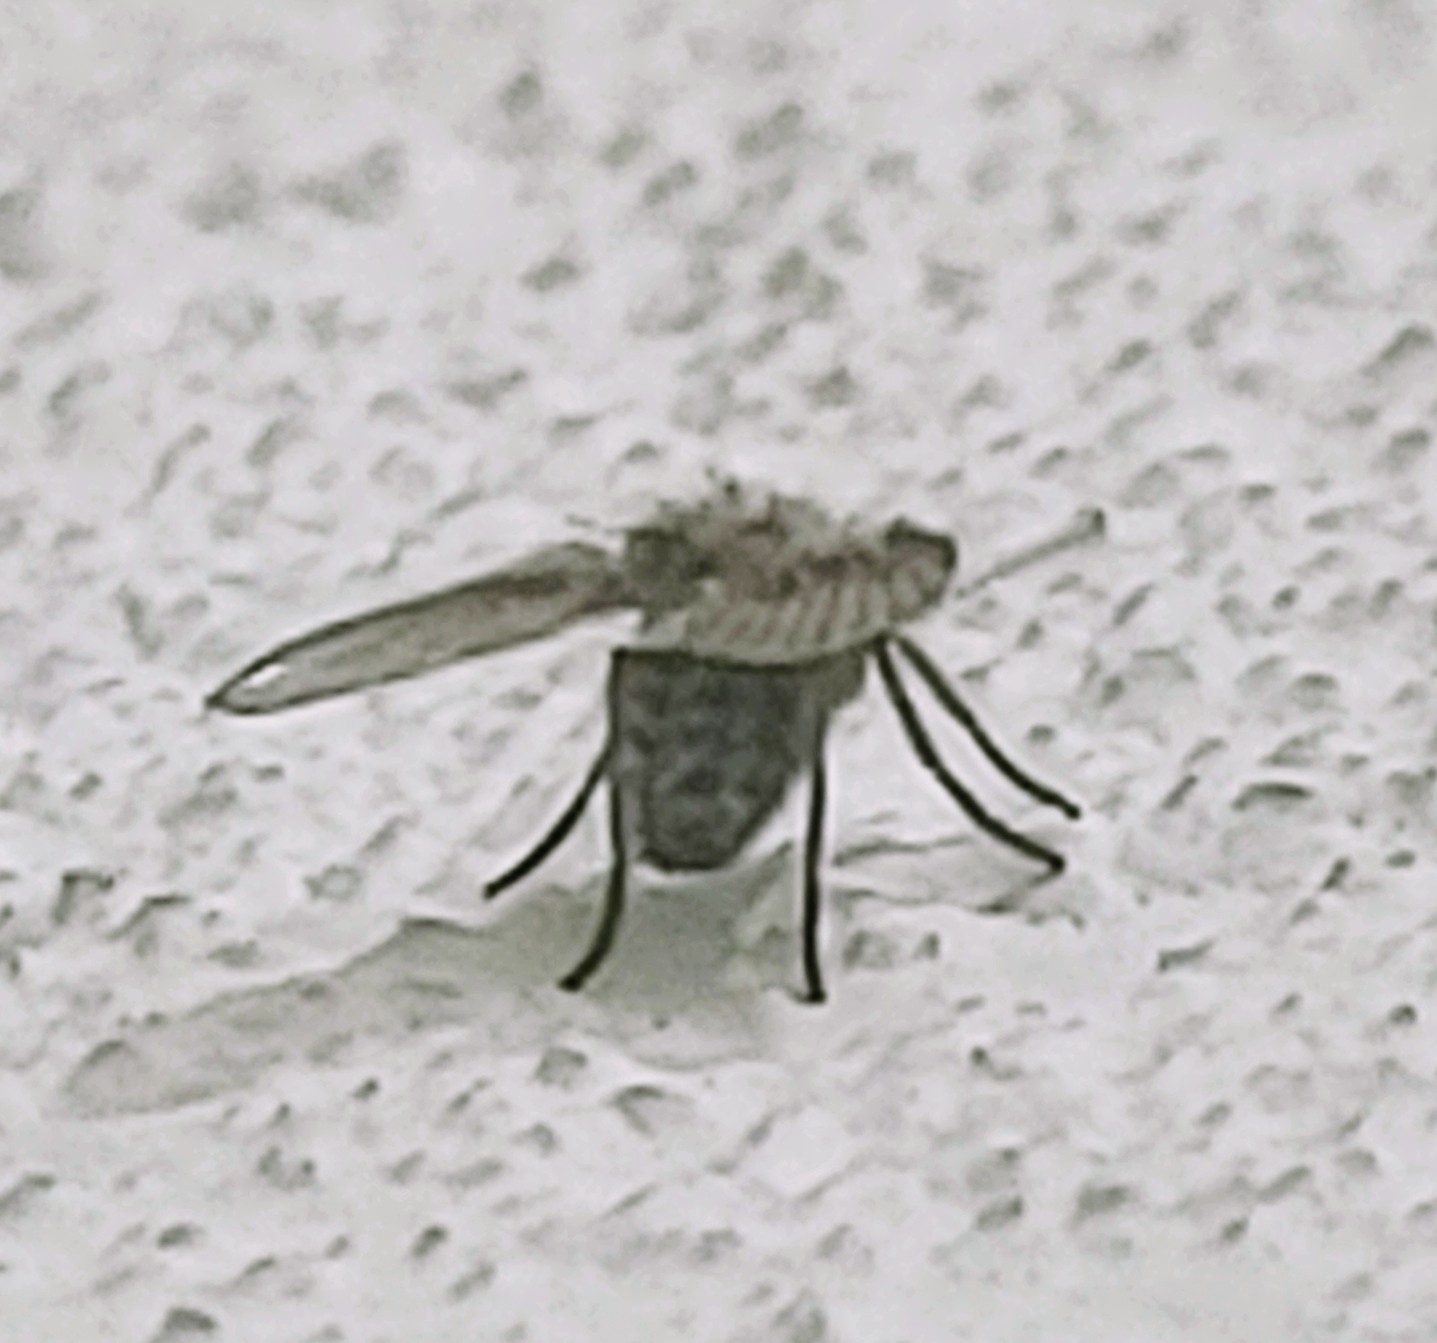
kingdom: Animalia
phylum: Arthropoda
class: Insecta
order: Diptera
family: Psychodidae
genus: Clogmia
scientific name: Clogmia albipunctatus
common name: White-spotted moth fly
